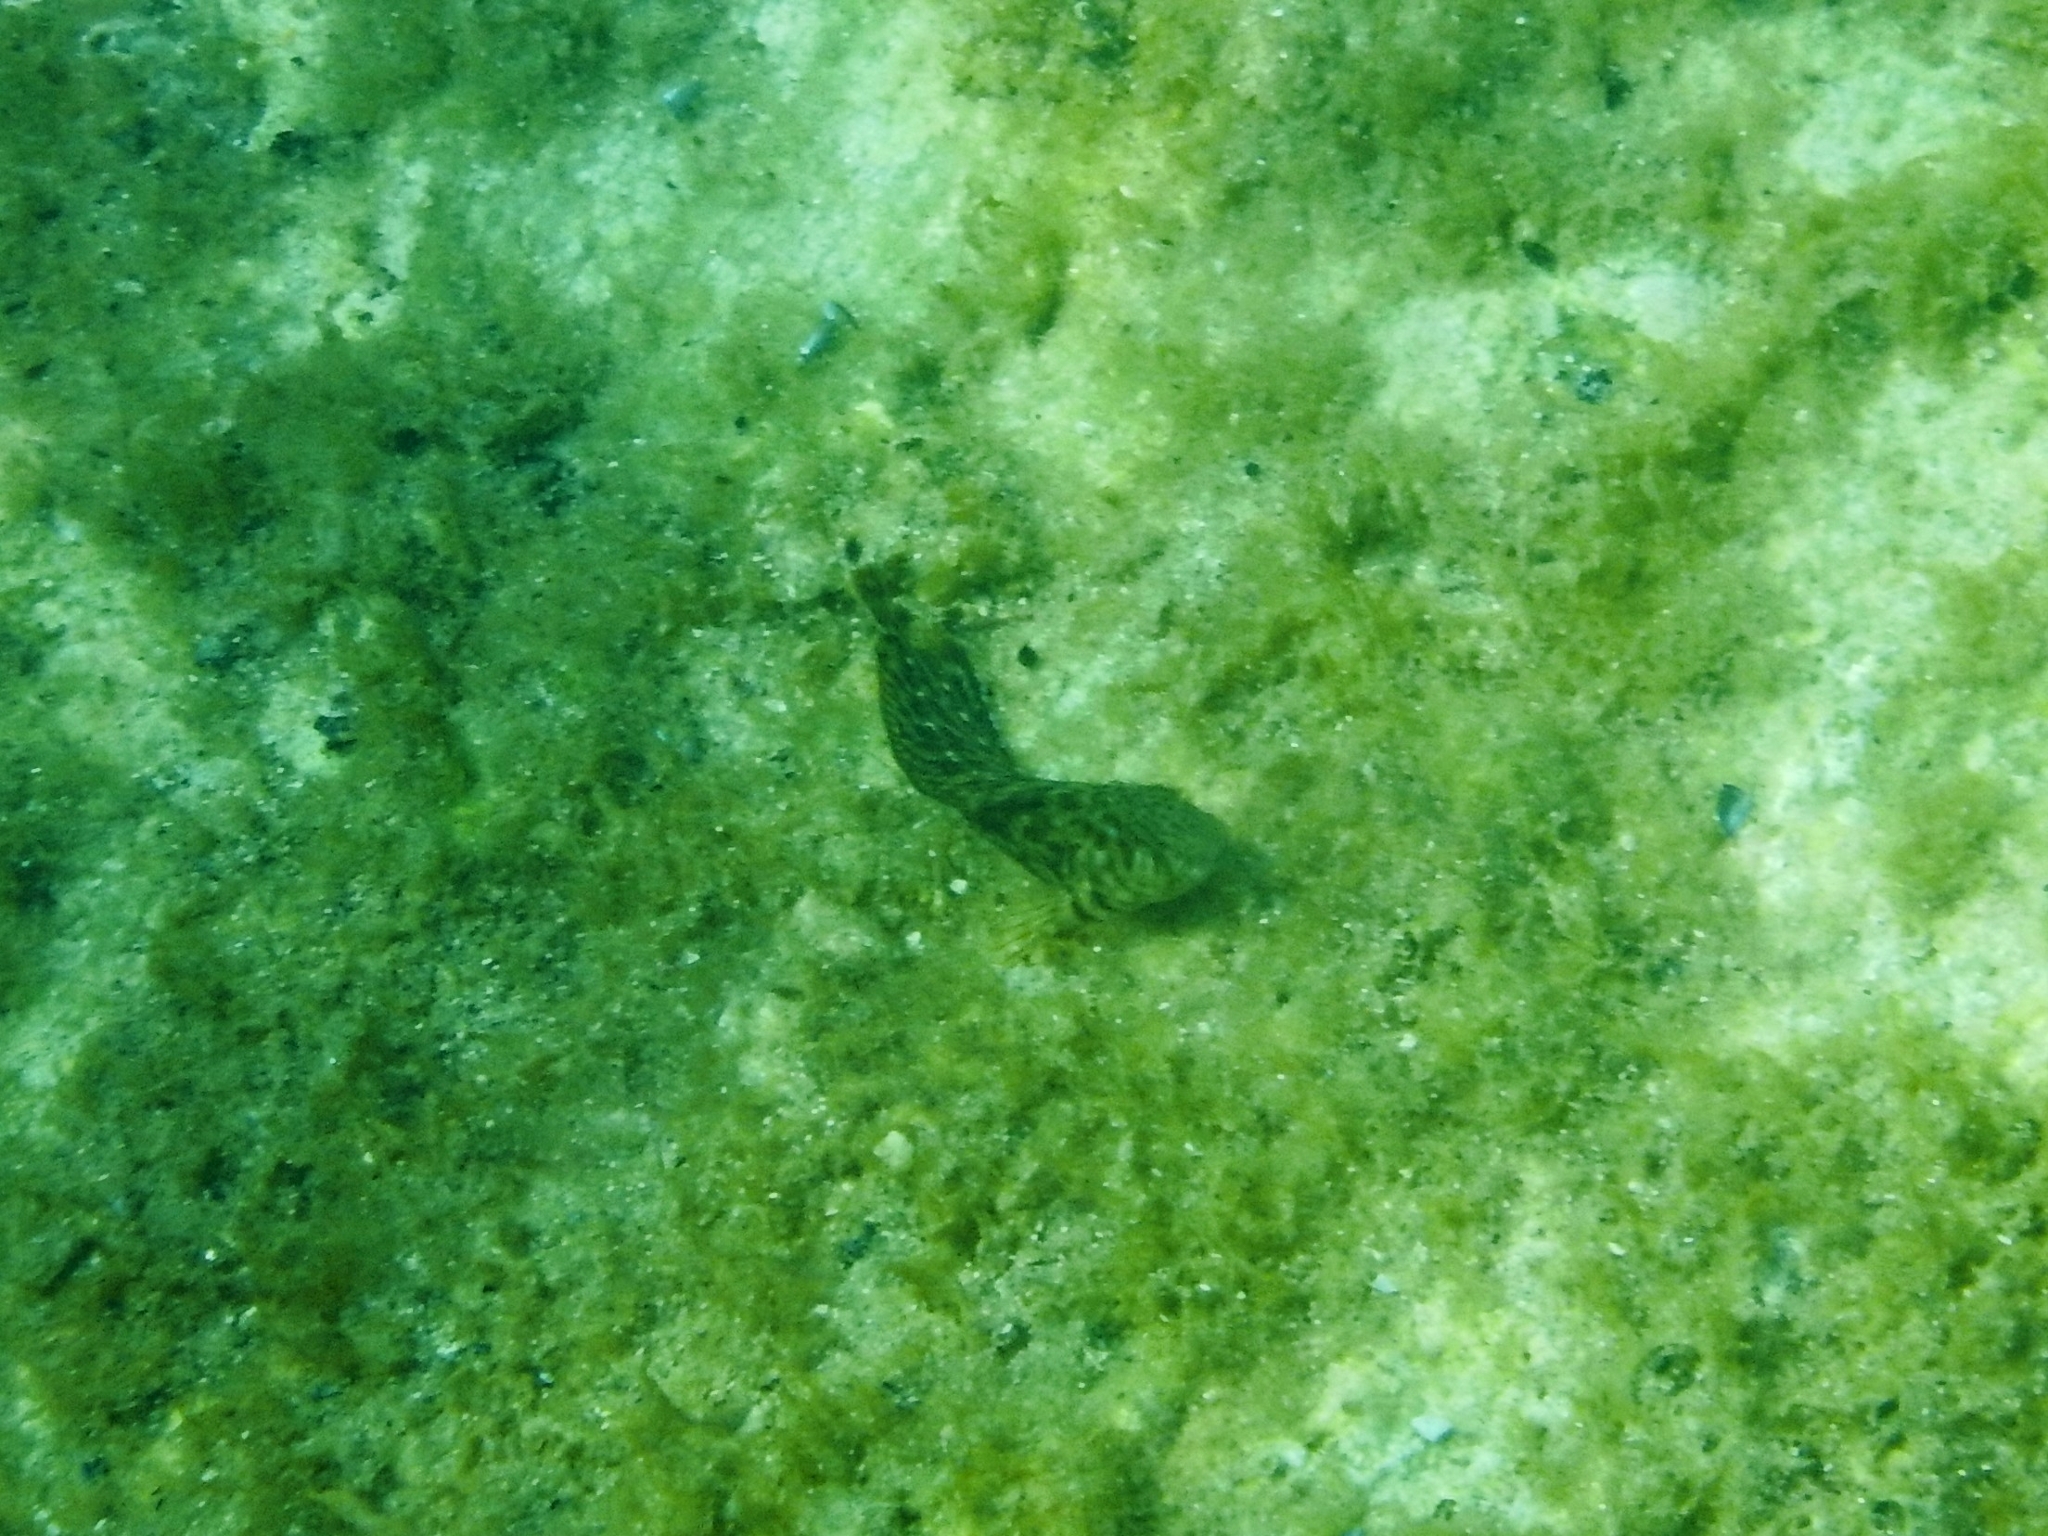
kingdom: Animalia
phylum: Chordata
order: Perciformes
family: Blenniidae
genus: Parablennius
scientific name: Parablennius sanguinolentus
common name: Black sea blenny
